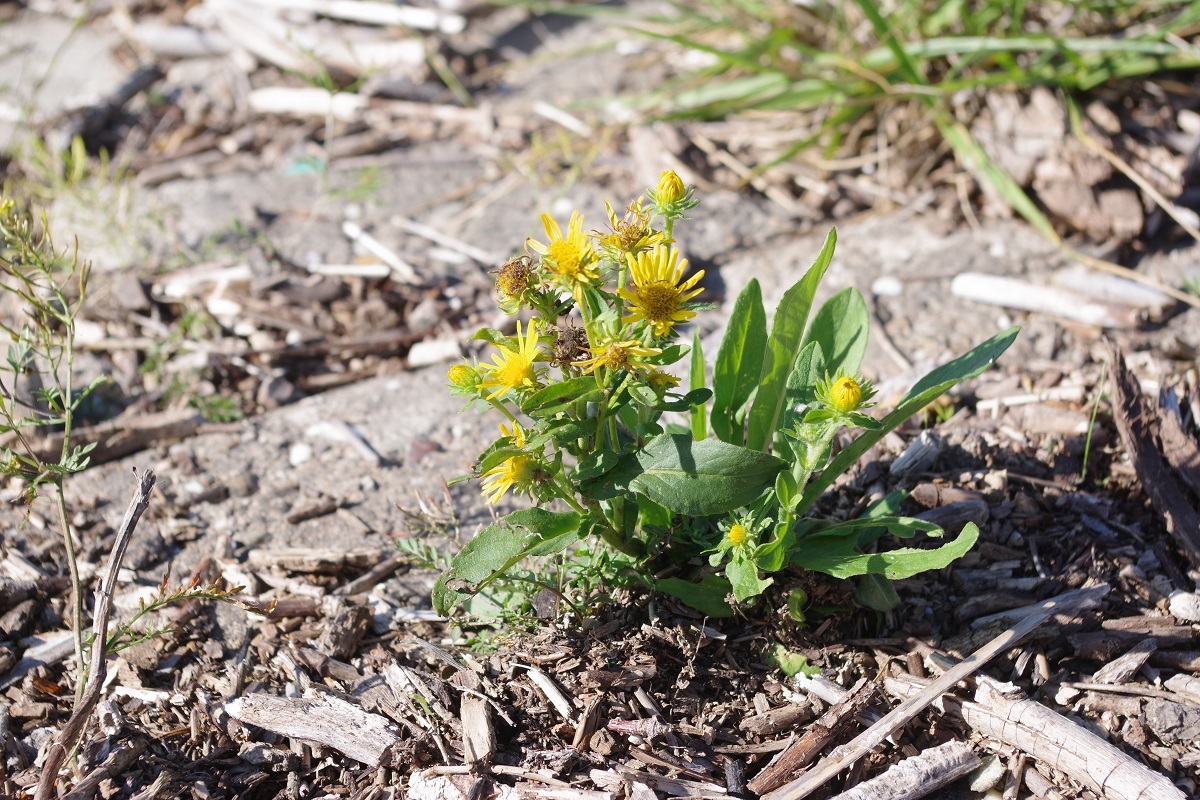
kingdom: Plantae
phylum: Tracheophyta
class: Magnoliopsida
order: Asterales
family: Asteraceae
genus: Pentanema
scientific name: Pentanema britannicum
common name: British elecampane
